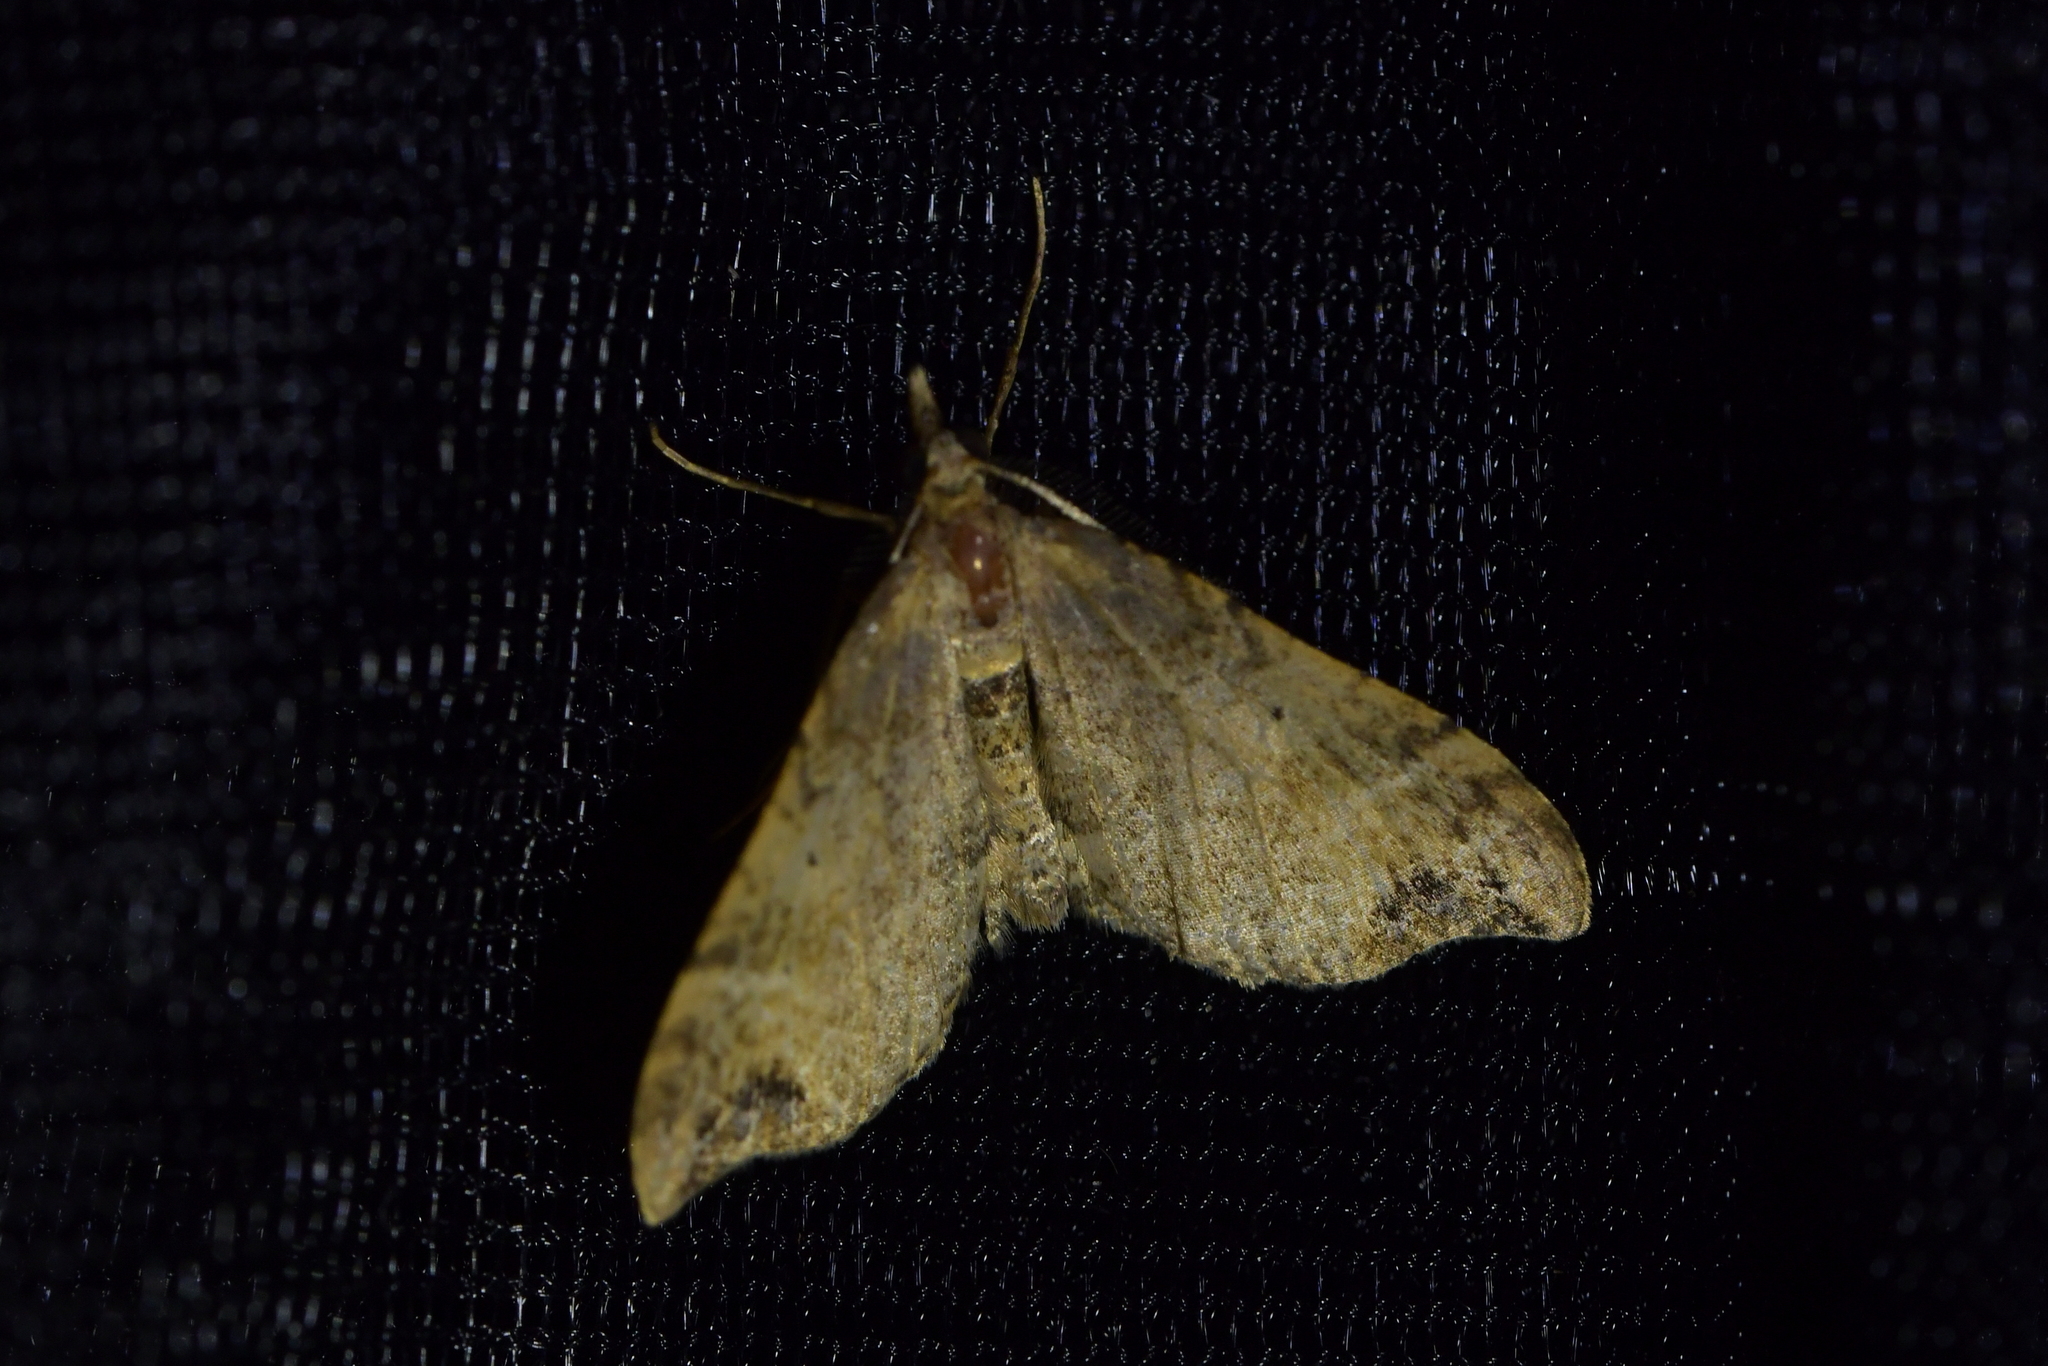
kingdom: Animalia
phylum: Arthropoda
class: Insecta
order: Lepidoptera
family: Geometridae
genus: Homodotis
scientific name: Homodotis megaspilata
